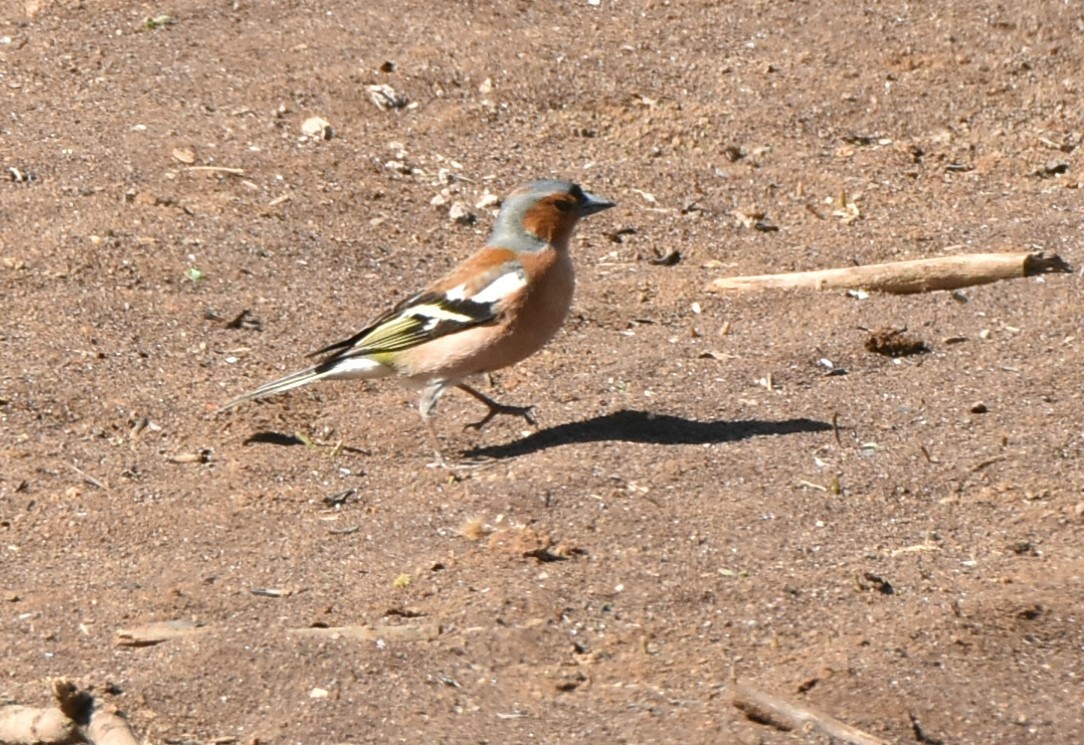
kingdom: Animalia
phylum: Chordata
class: Aves
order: Passeriformes
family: Fringillidae
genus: Fringilla
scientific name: Fringilla coelebs
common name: Common chaffinch
